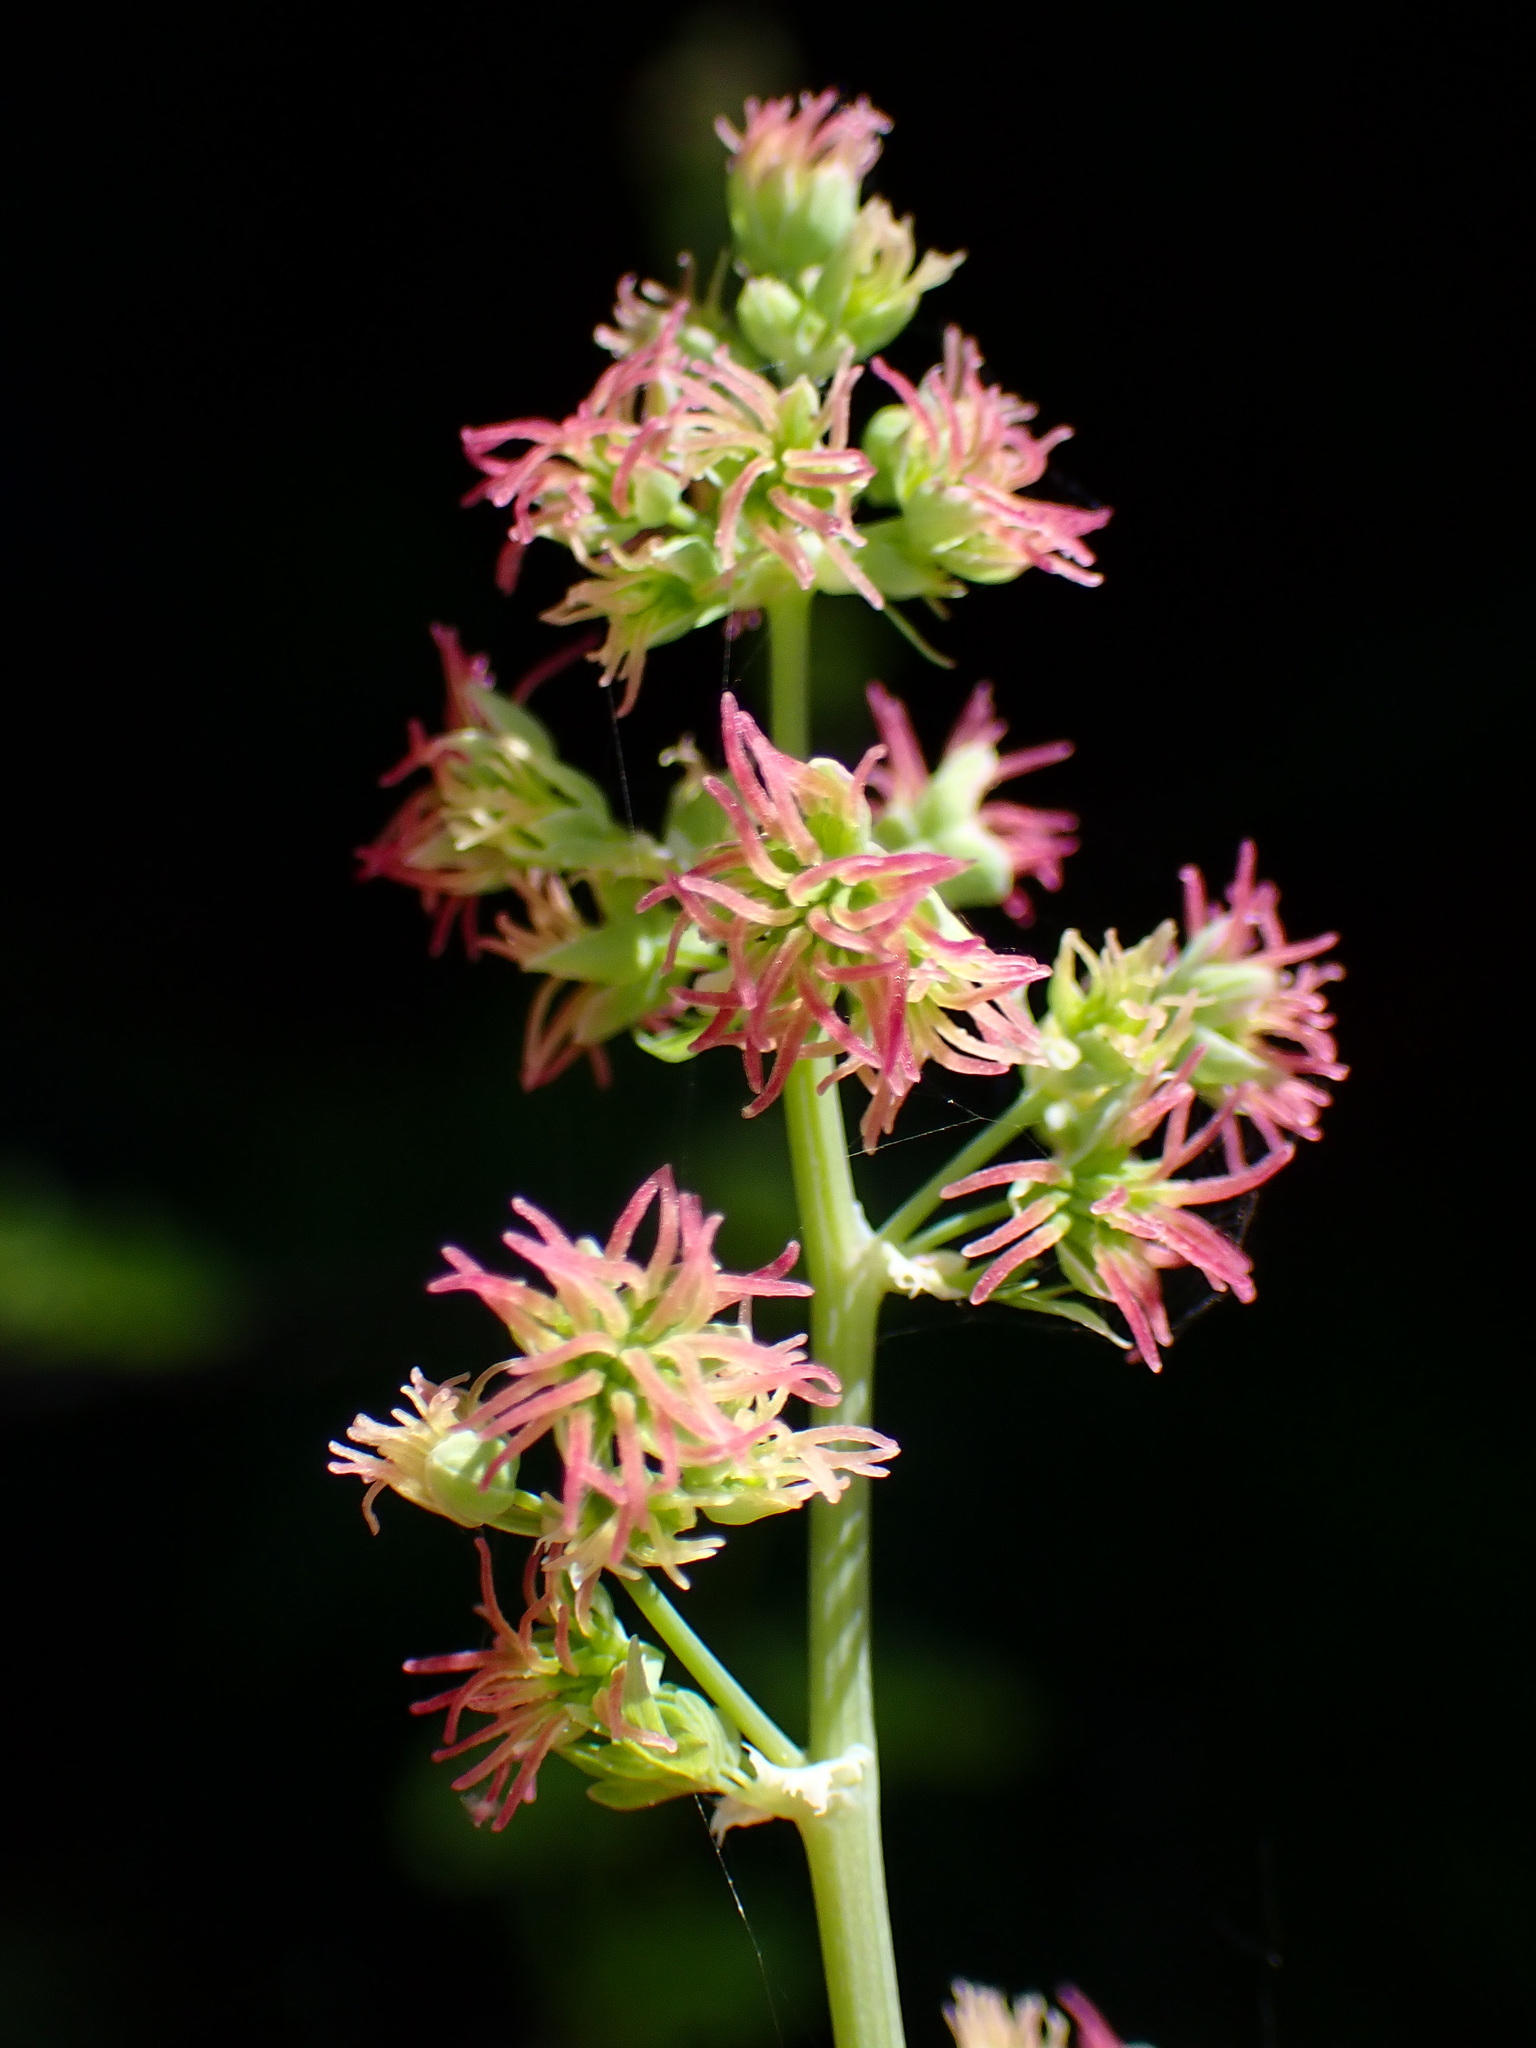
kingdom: Plantae
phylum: Tracheophyta
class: Magnoliopsida
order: Ranunculales
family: Ranunculaceae
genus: Thalictrum
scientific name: Thalictrum fendleri
